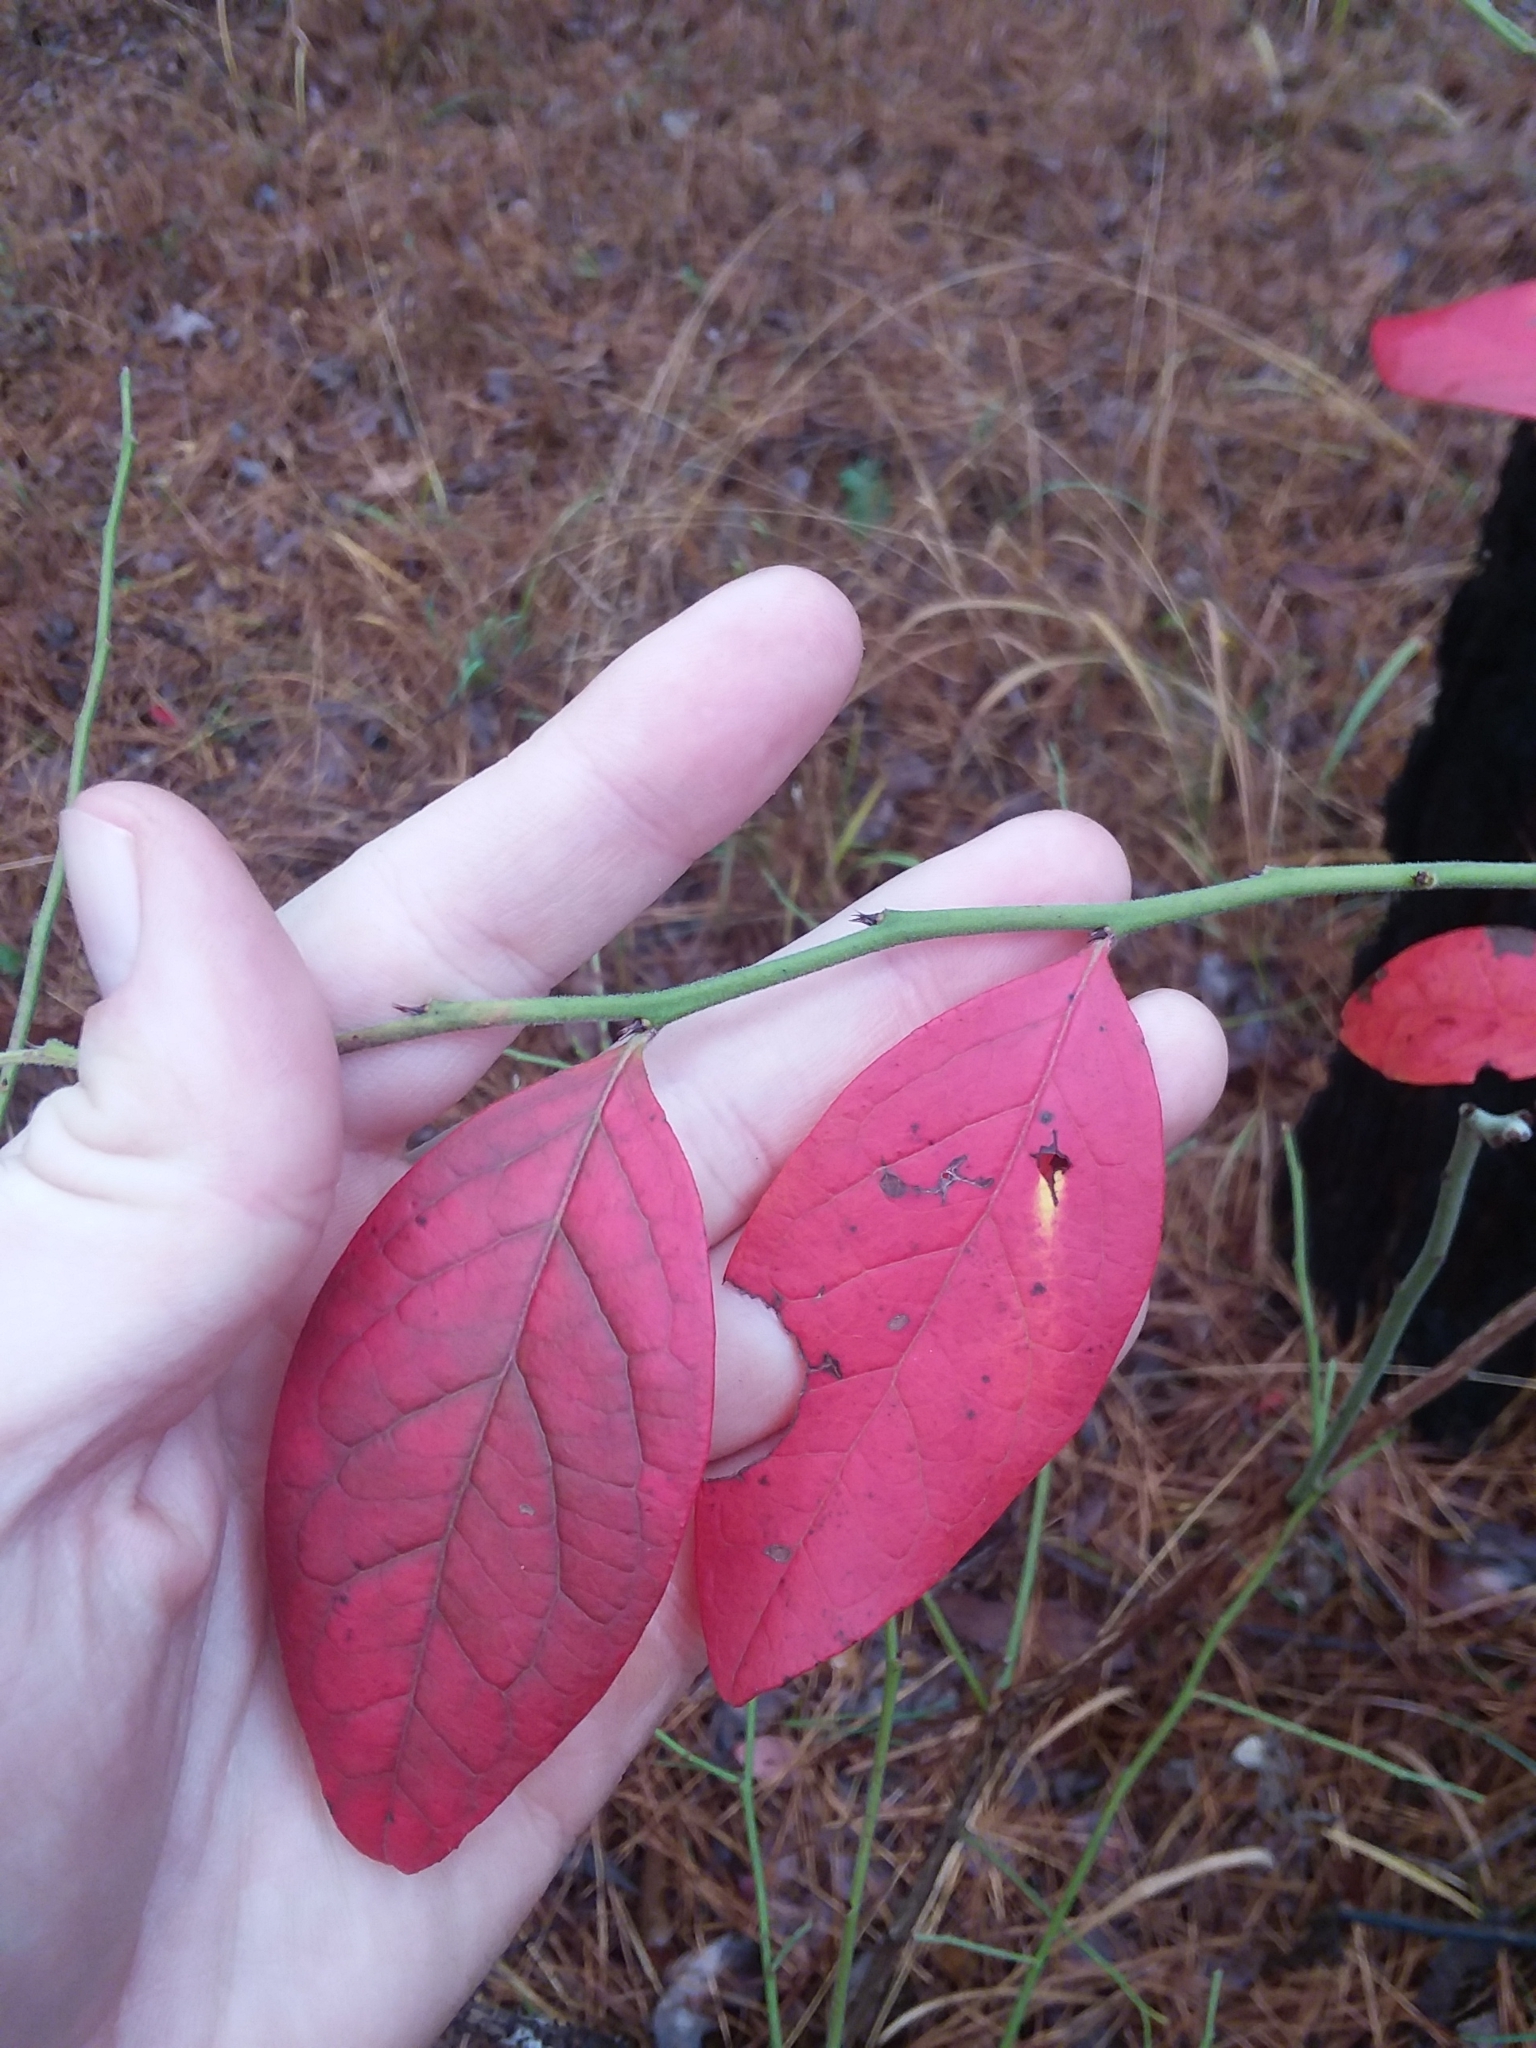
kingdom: Plantae
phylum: Tracheophyta
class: Magnoliopsida
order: Ericales
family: Ericaceae
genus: Vaccinium
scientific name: Vaccinium corymbosum
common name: Blueberry
